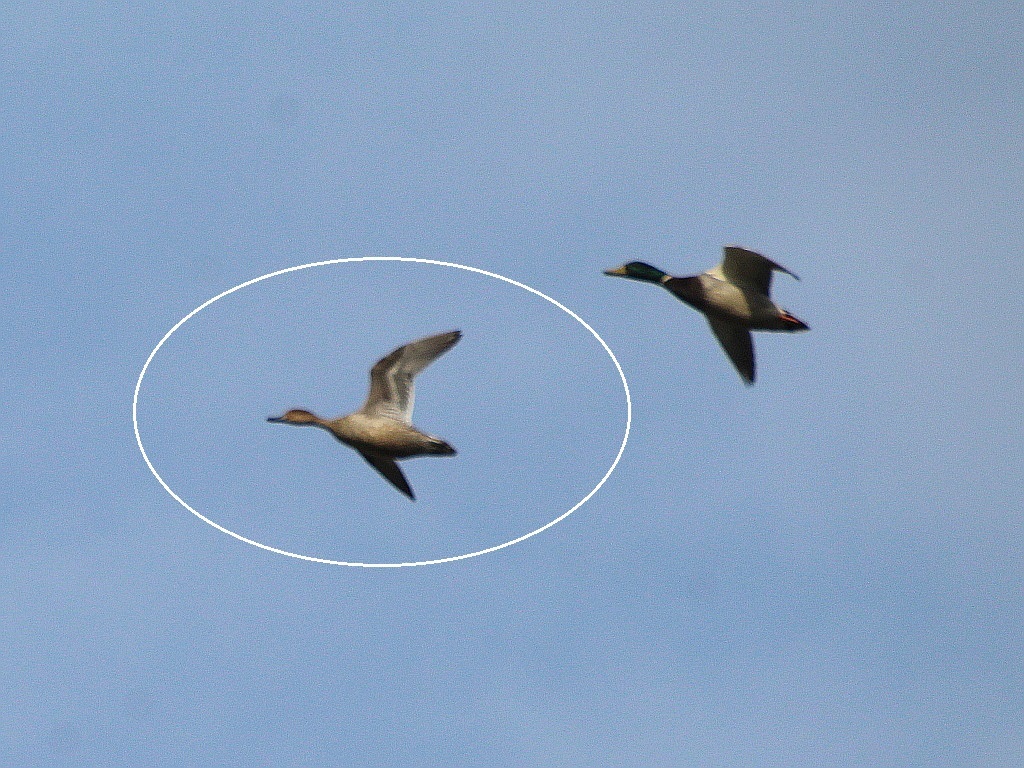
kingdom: Animalia
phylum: Chordata
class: Aves
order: Anseriformes
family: Anatidae
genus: Anas
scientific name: Anas acuta
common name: Northern pintail
